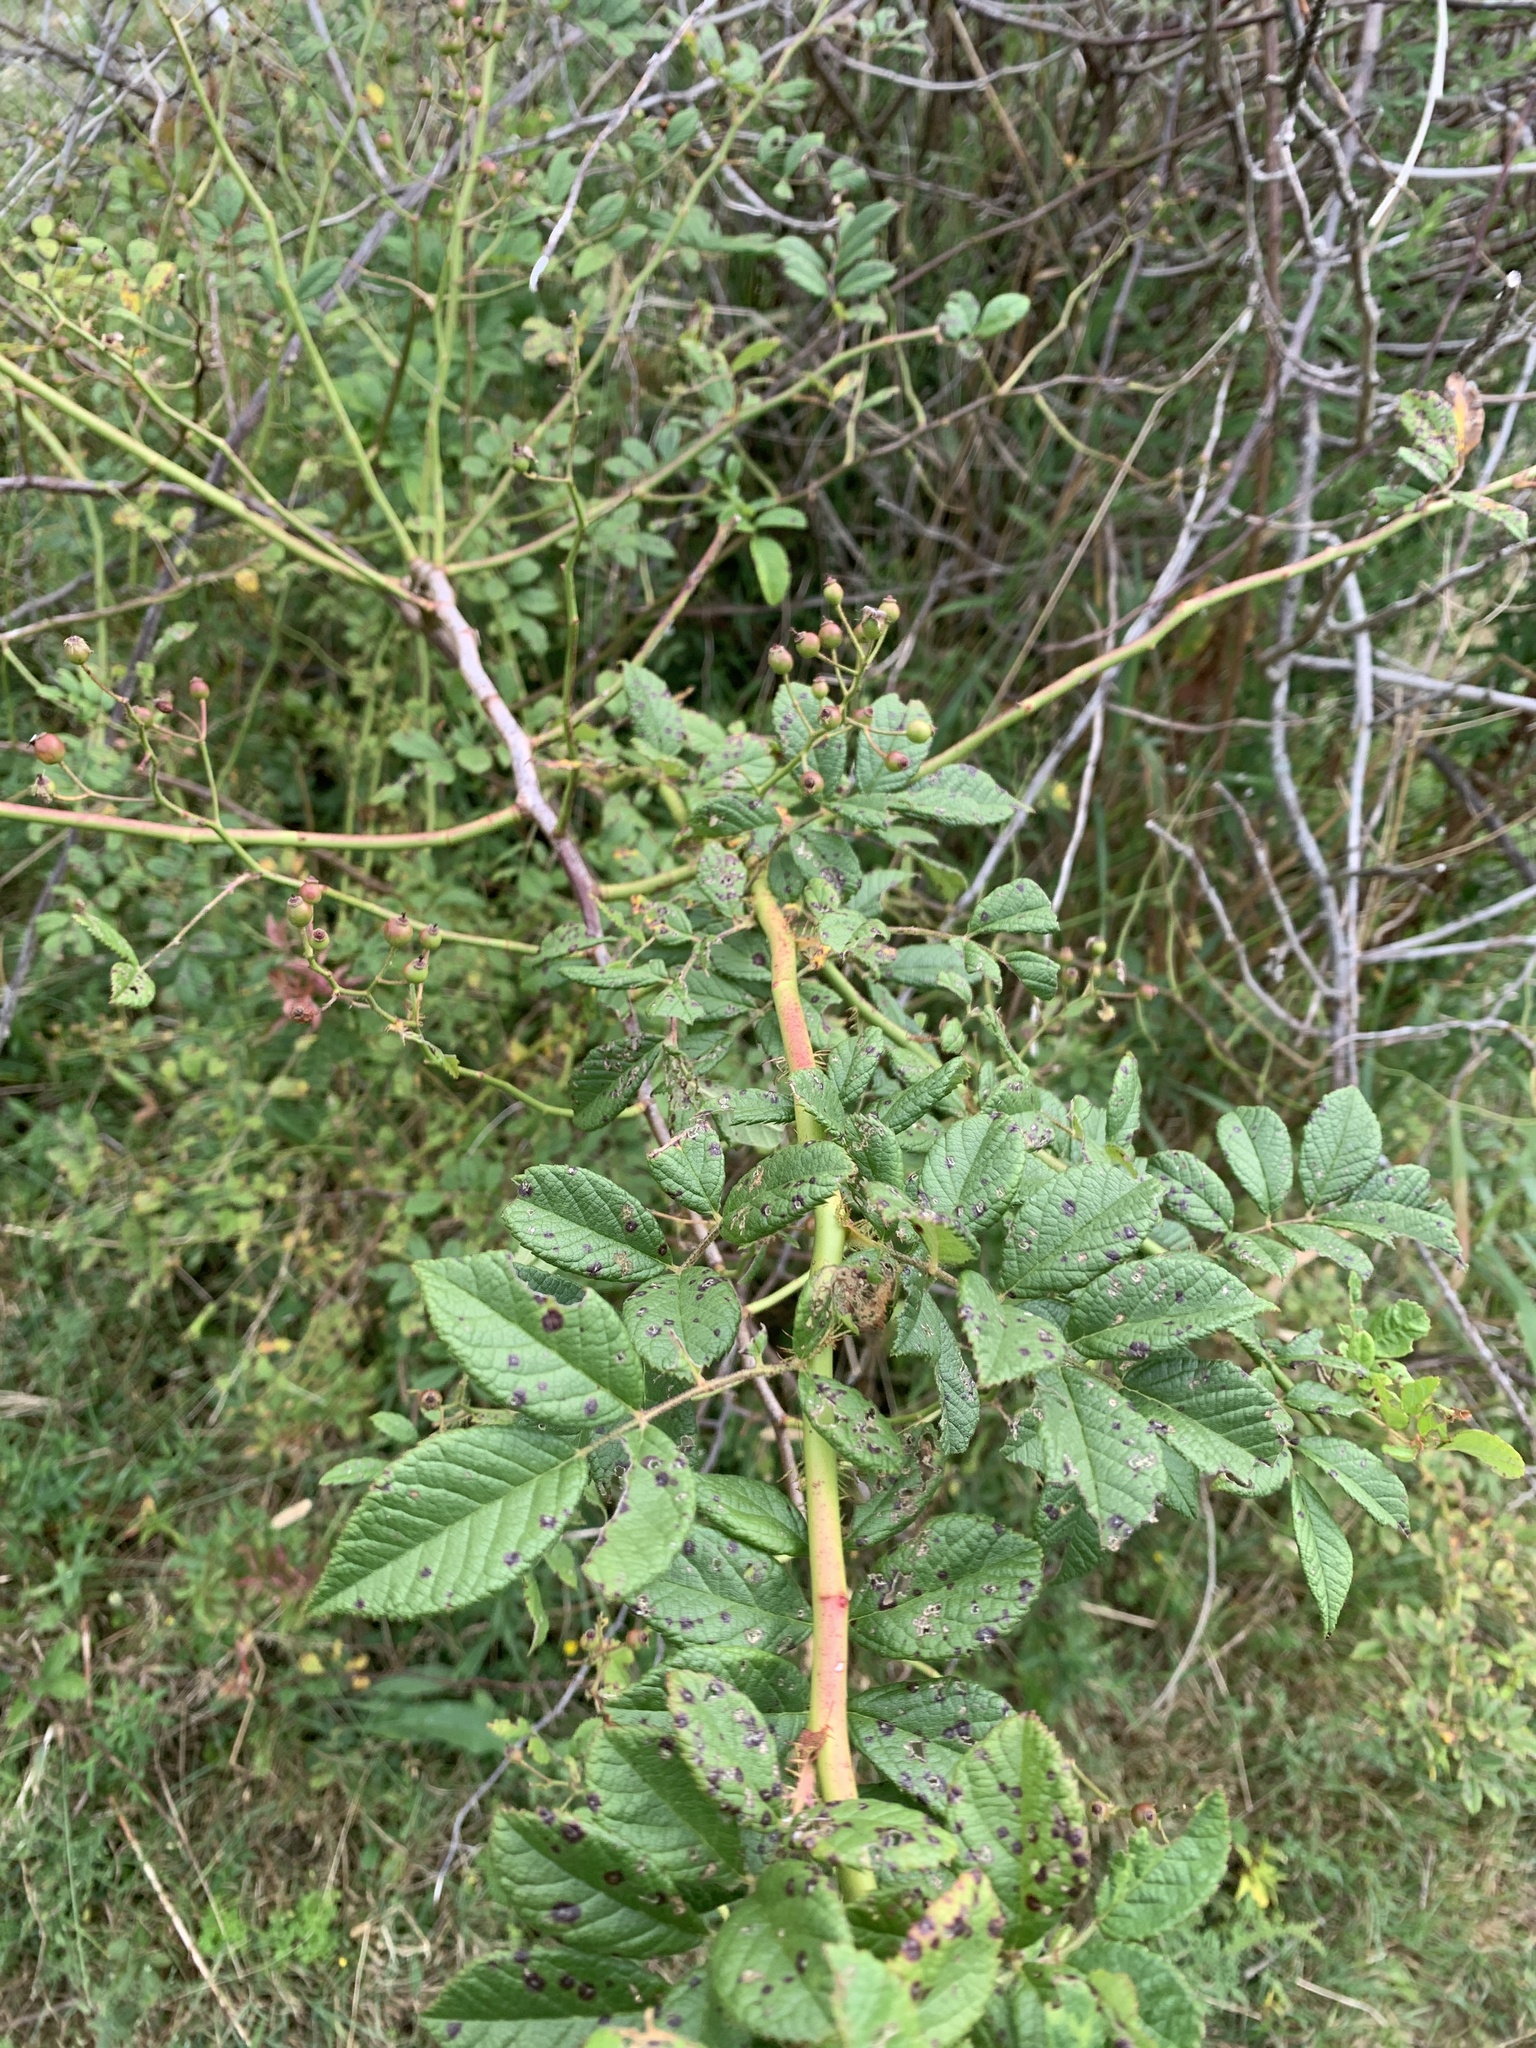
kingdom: Plantae
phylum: Tracheophyta
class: Magnoliopsida
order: Rosales
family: Rosaceae
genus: Rosa
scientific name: Rosa multiflora
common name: Multiflora rose
